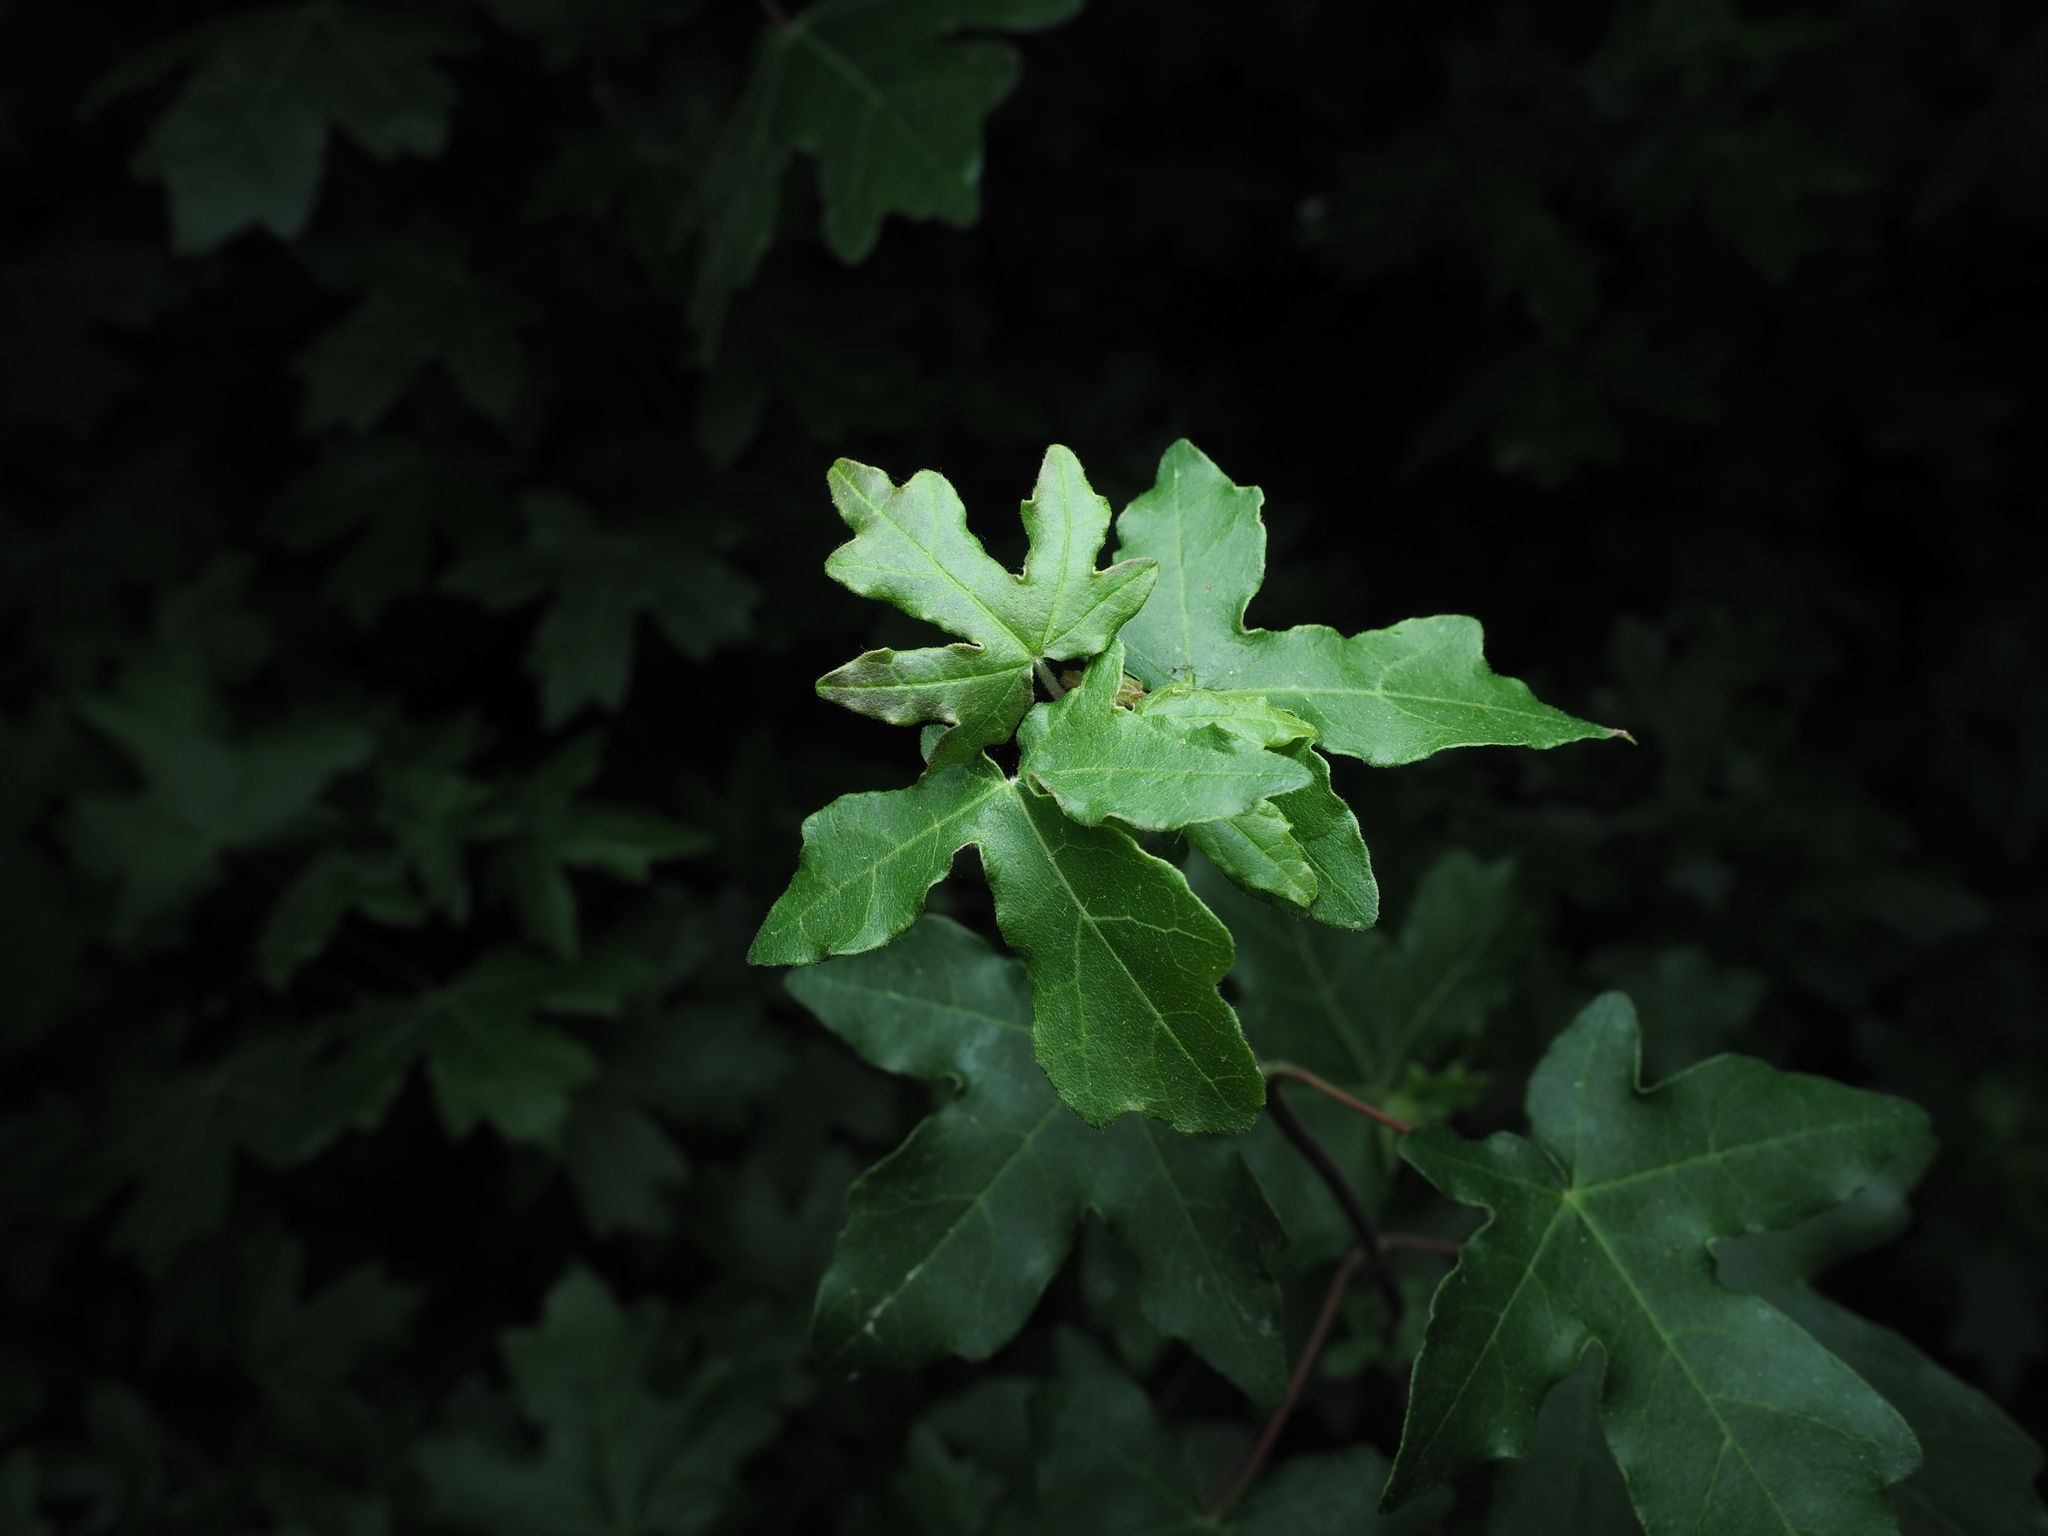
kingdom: Plantae
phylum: Tracheophyta
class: Magnoliopsida
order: Sapindales
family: Sapindaceae
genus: Acer
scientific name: Acer campestre
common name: Field maple
